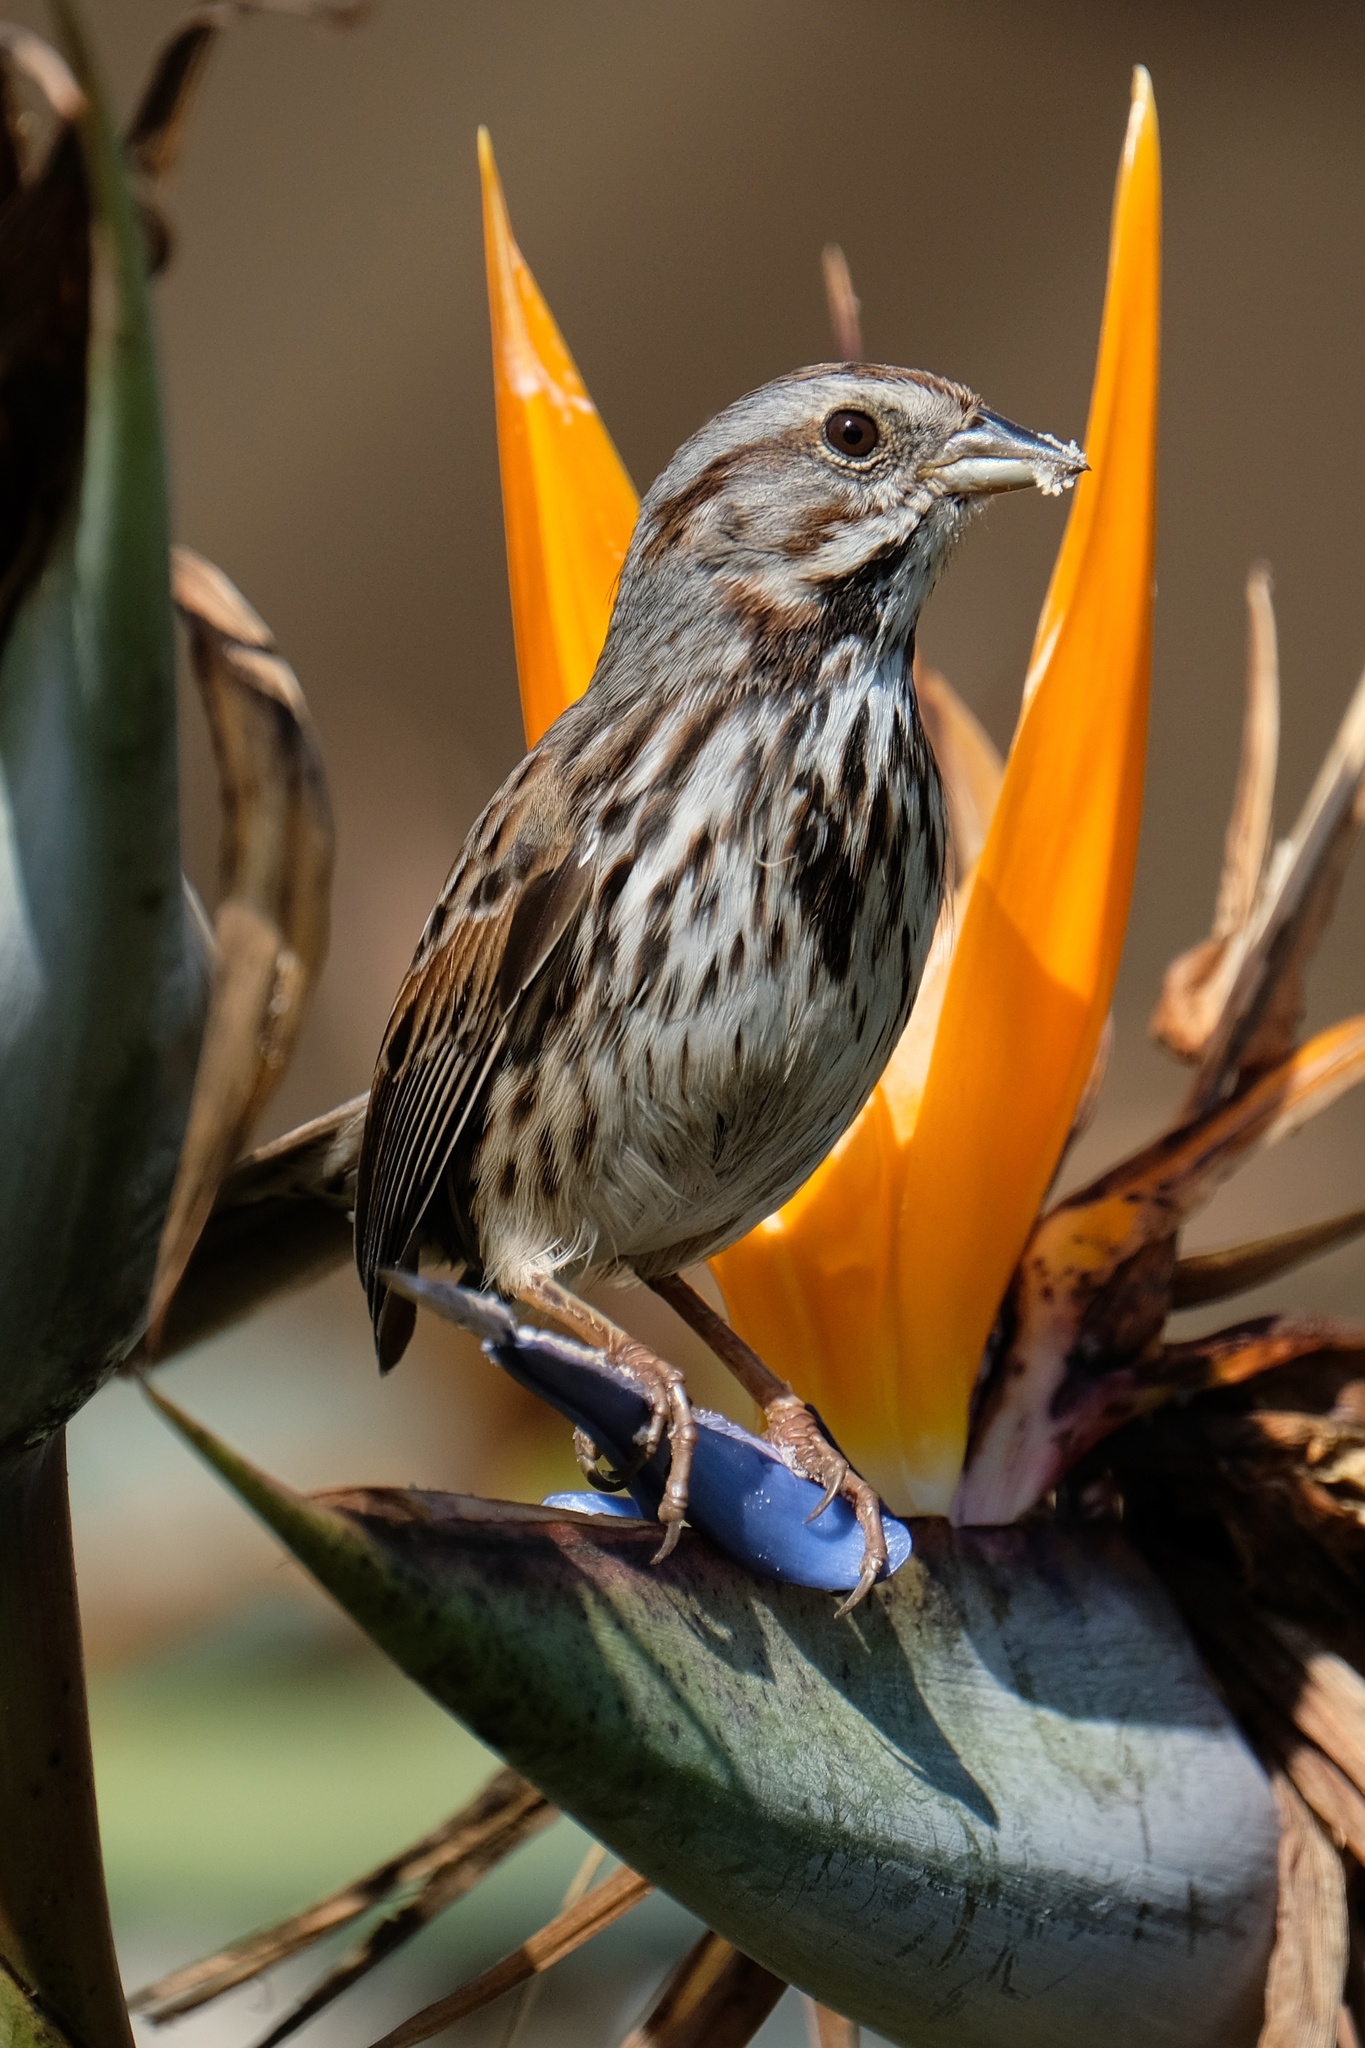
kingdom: Animalia
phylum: Chordata
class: Aves
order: Passeriformes
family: Passerellidae
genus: Melospiza
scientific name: Melospiza melodia
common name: Song sparrow
